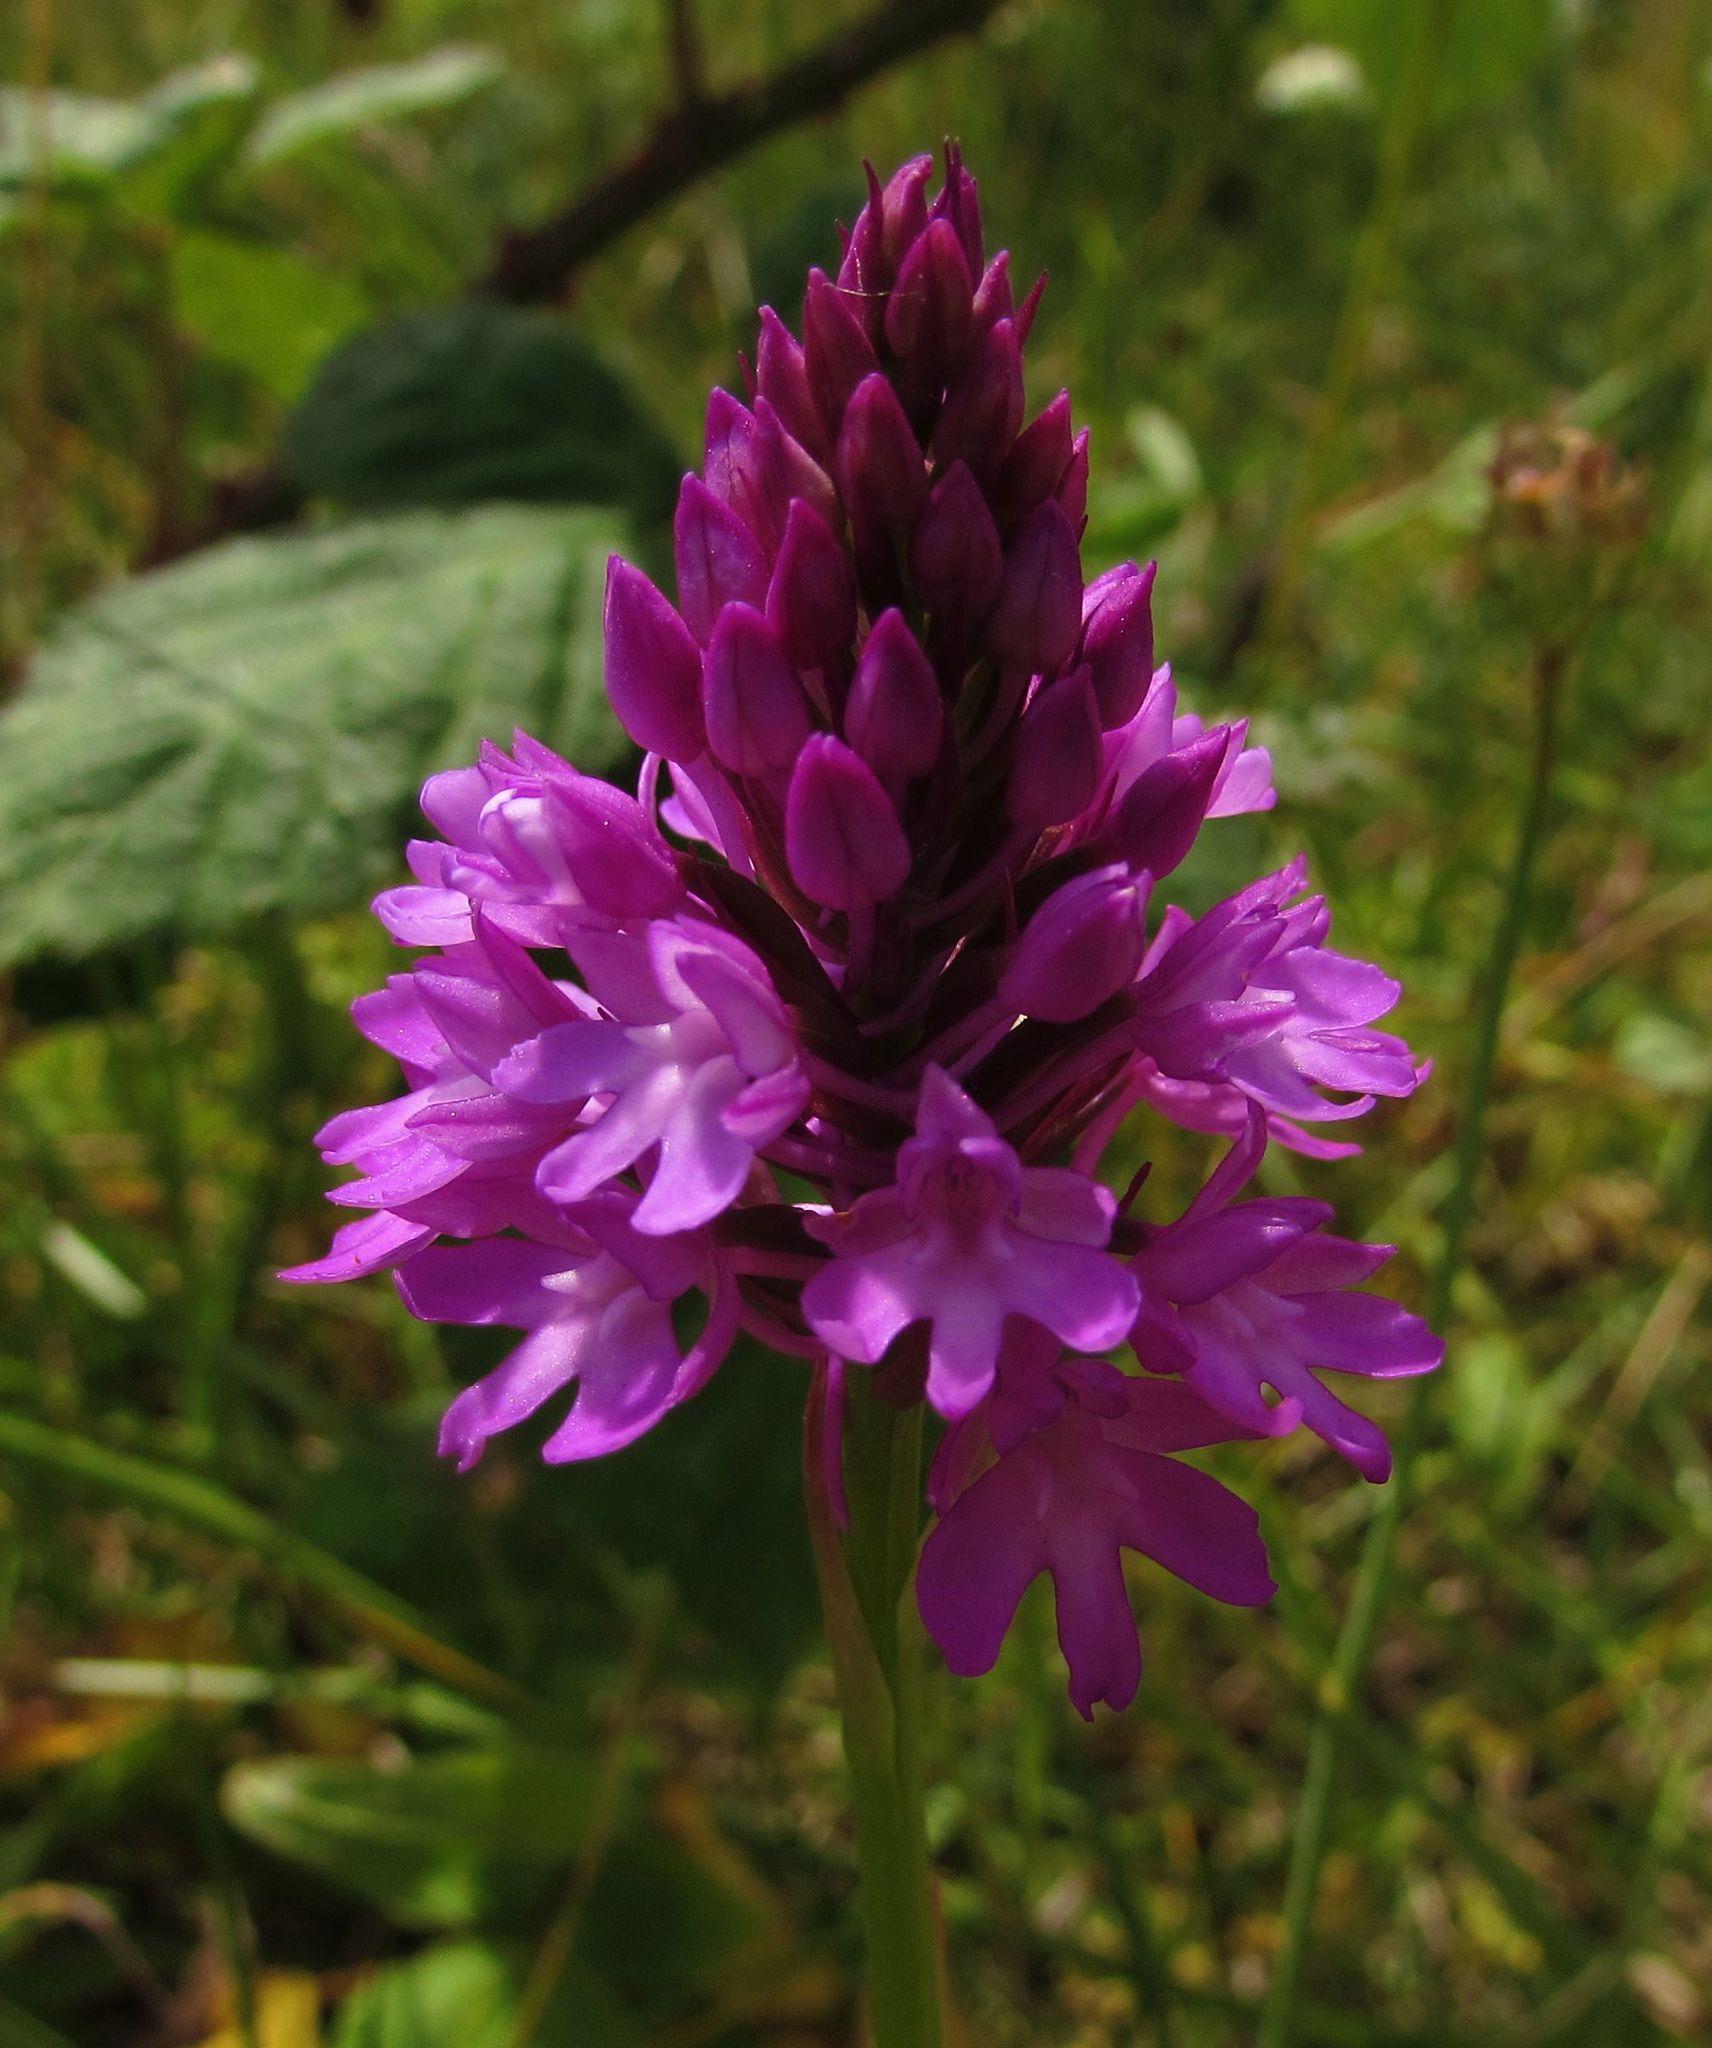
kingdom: Plantae
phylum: Tracheophyta
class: Liliopsida
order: Asparagales
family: Orchidaceae
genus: Anacamptis
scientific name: Anacamptis pyramidalis
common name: Pyramidal orchid
